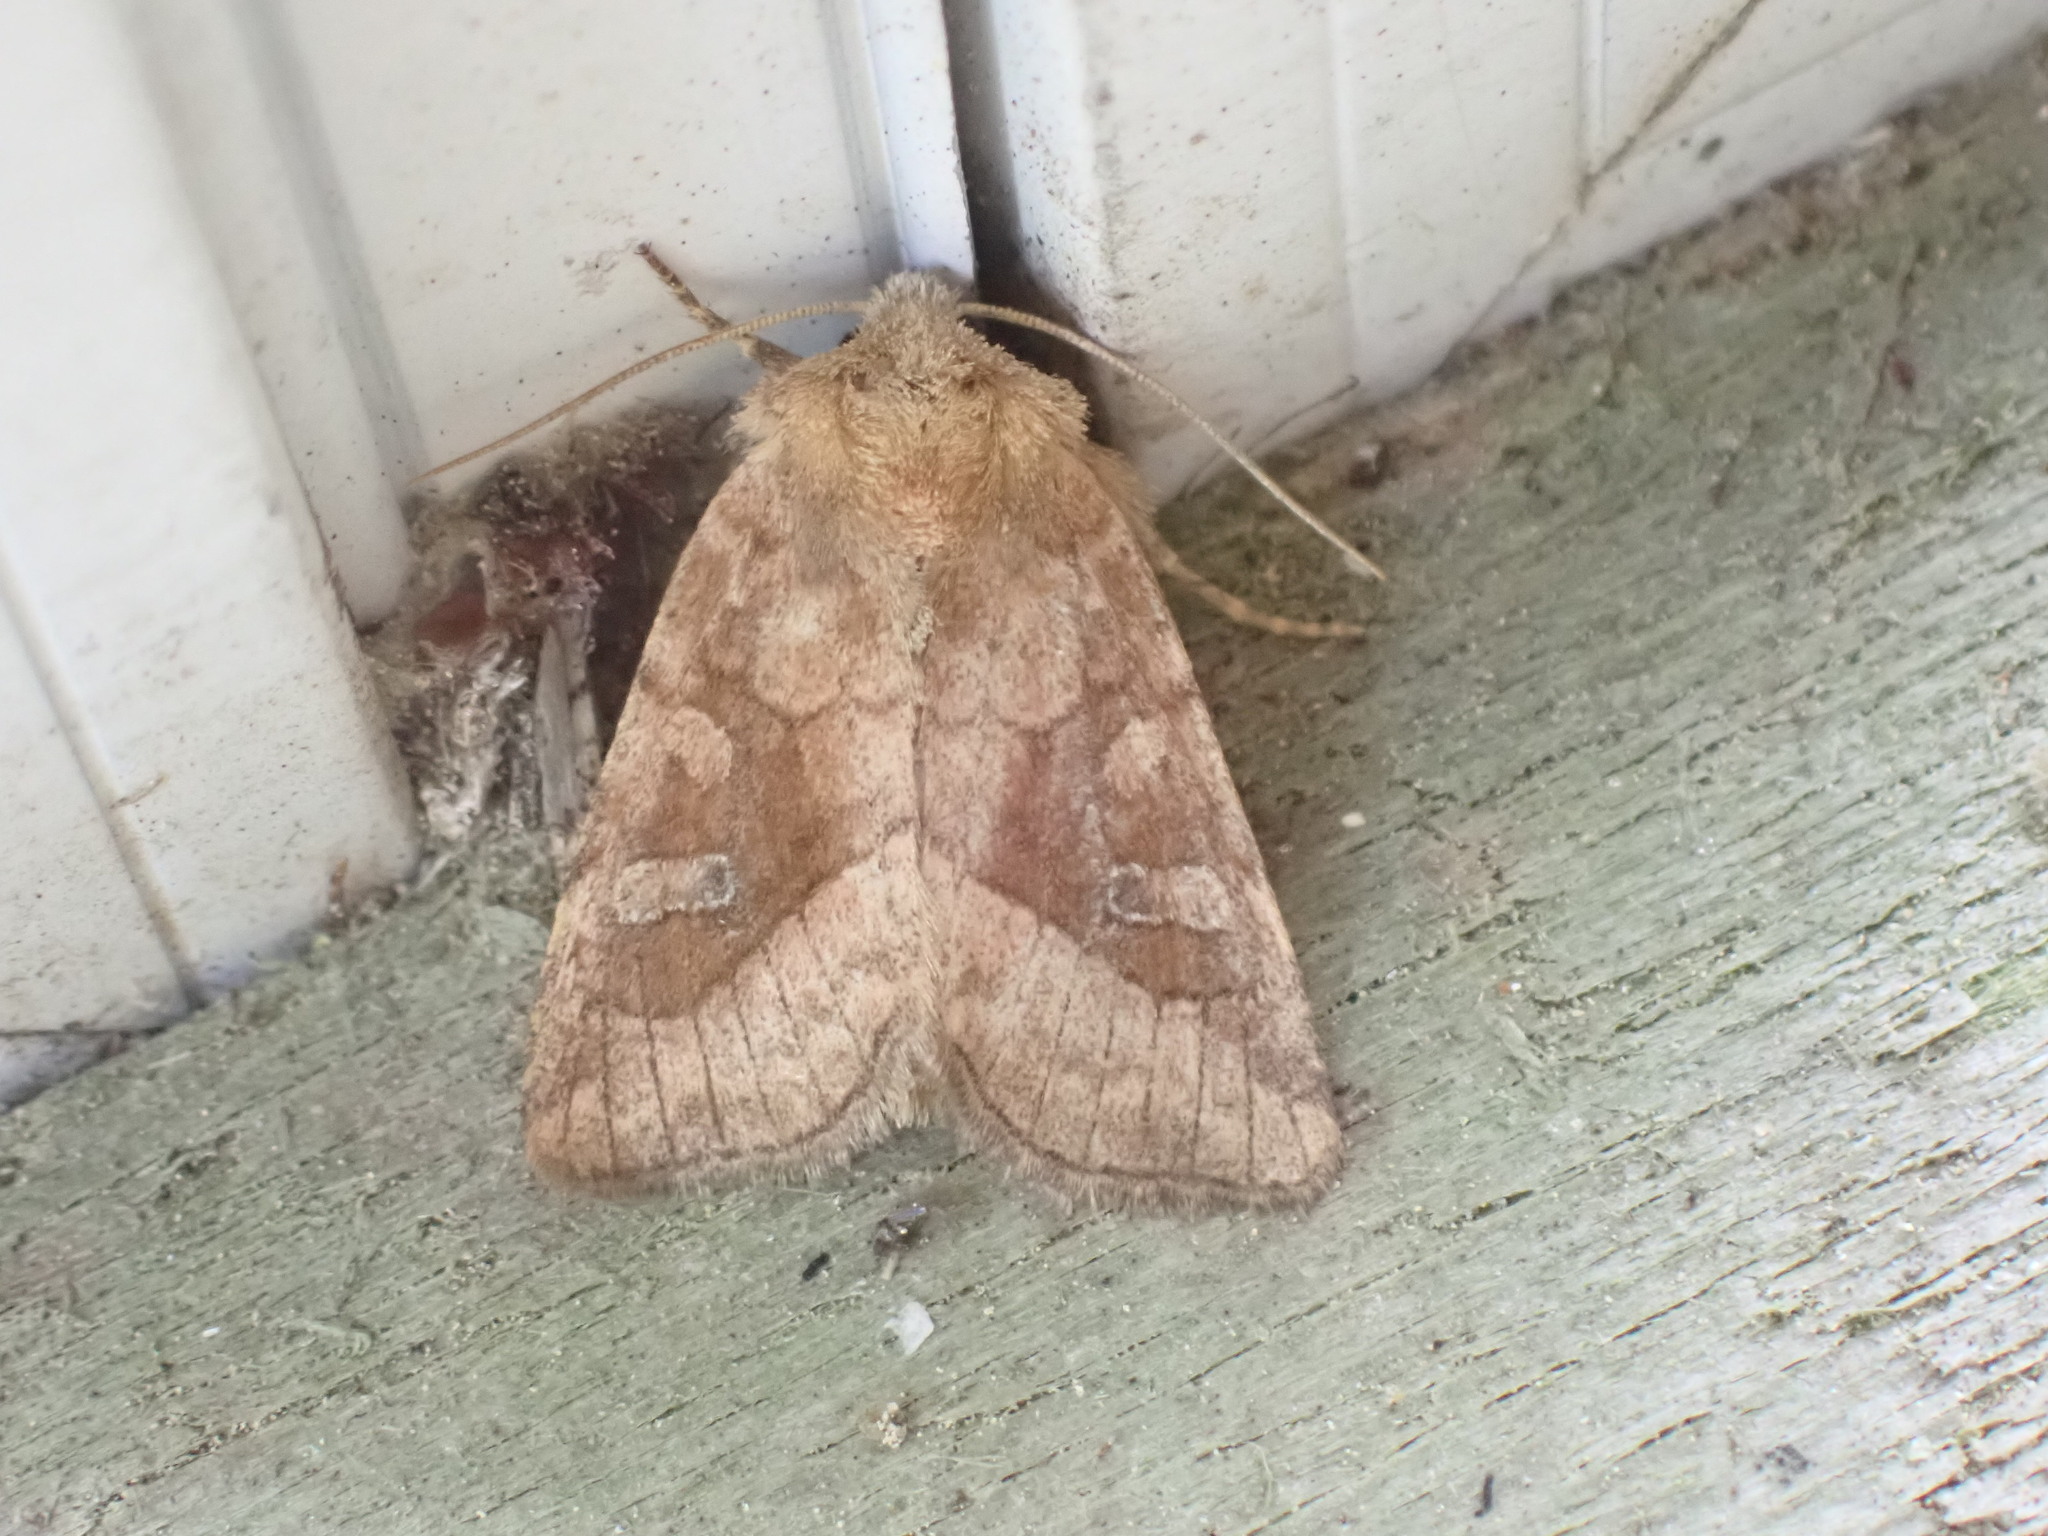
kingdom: Animalia
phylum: Arthropoda
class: Insecta
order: Lepidoptera
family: Noctuidae
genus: Lacinipolia
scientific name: Lacinipolia lorea
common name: Bridled arches moth
